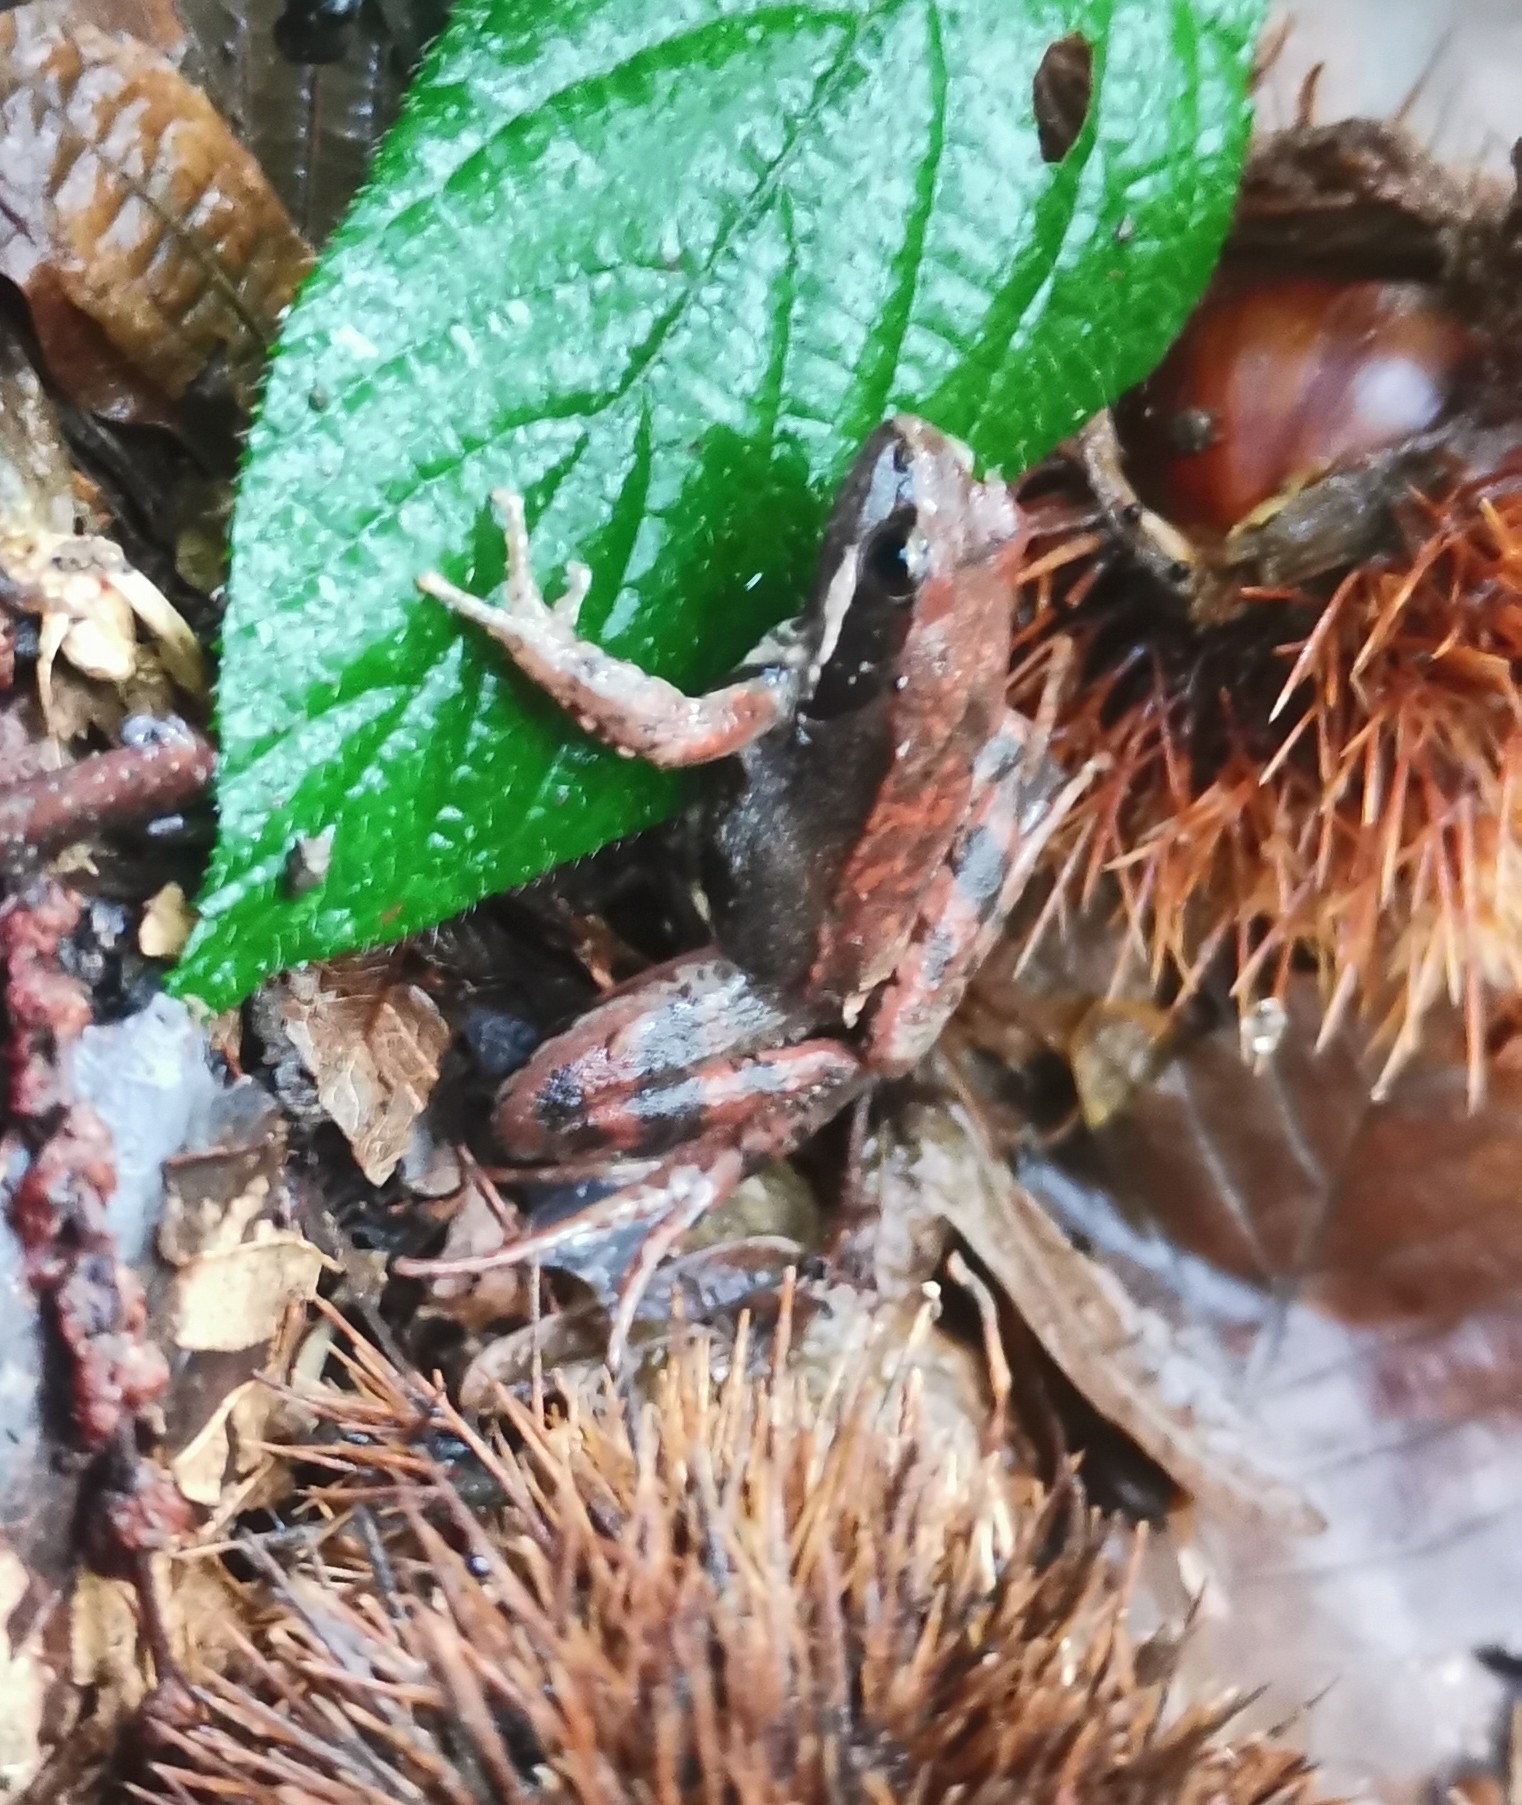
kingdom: Animalia
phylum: Chordata
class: Amphibia
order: Anura
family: Ranidae
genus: Rana
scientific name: Rana latastei
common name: Italian agile frog
